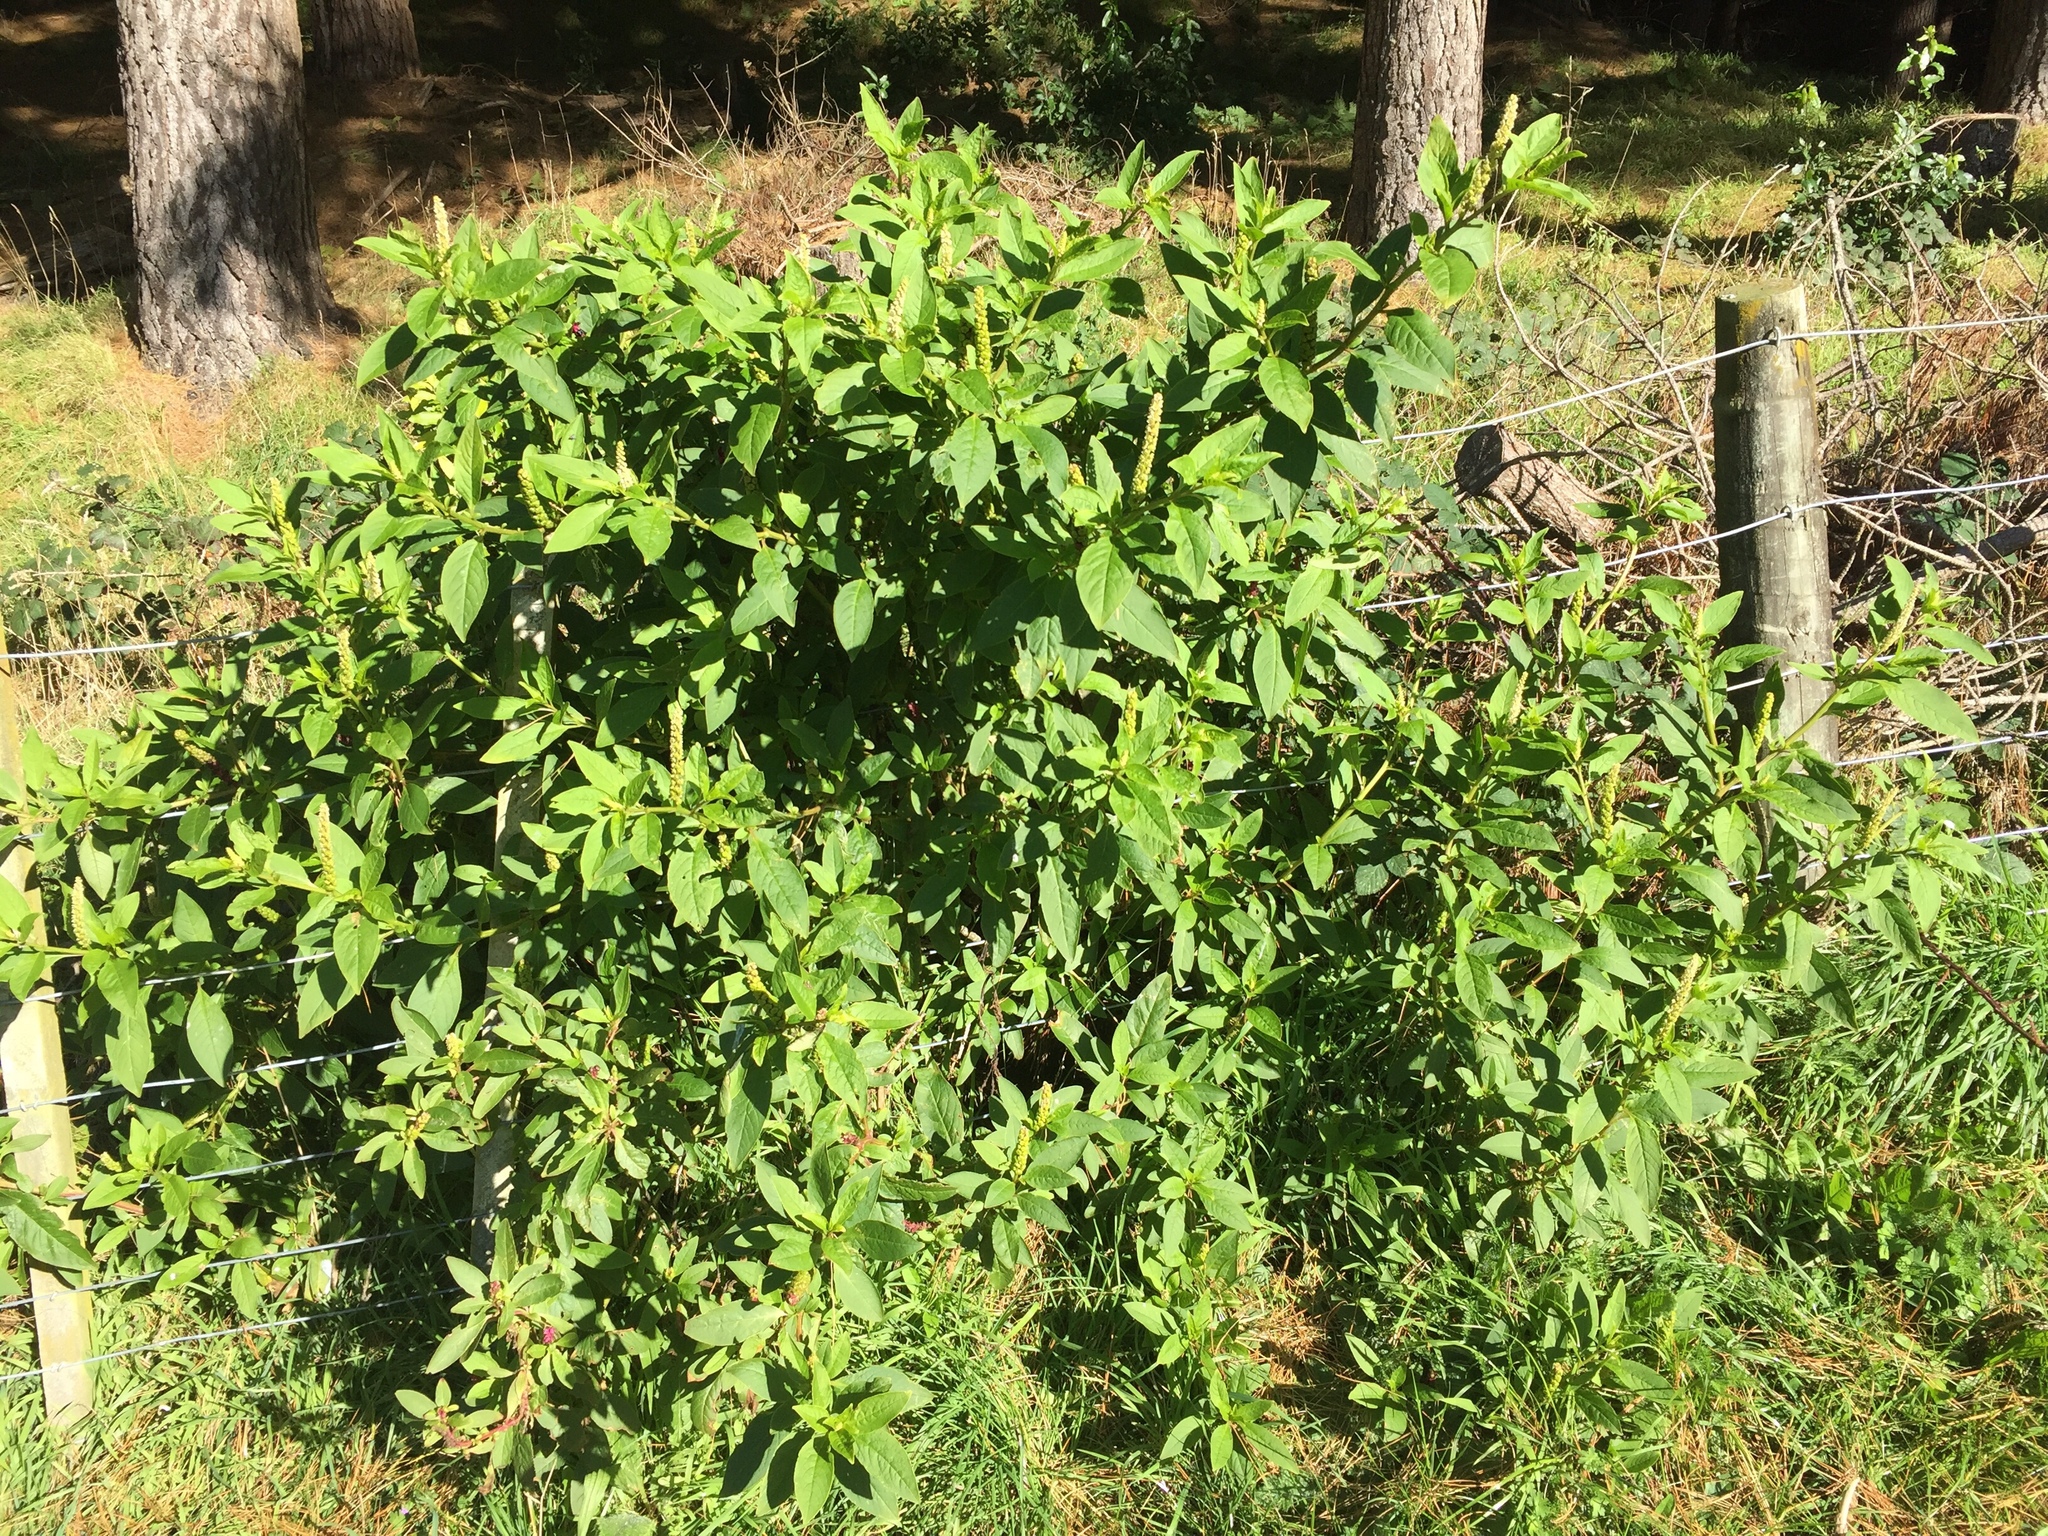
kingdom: Plantae
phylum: Tracheophyta
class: Magnoliopsida
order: Caryophyllales
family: Phytolaccaceae
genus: Phytolacca
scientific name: Phytolacca icosandra
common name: Button pokeweed
